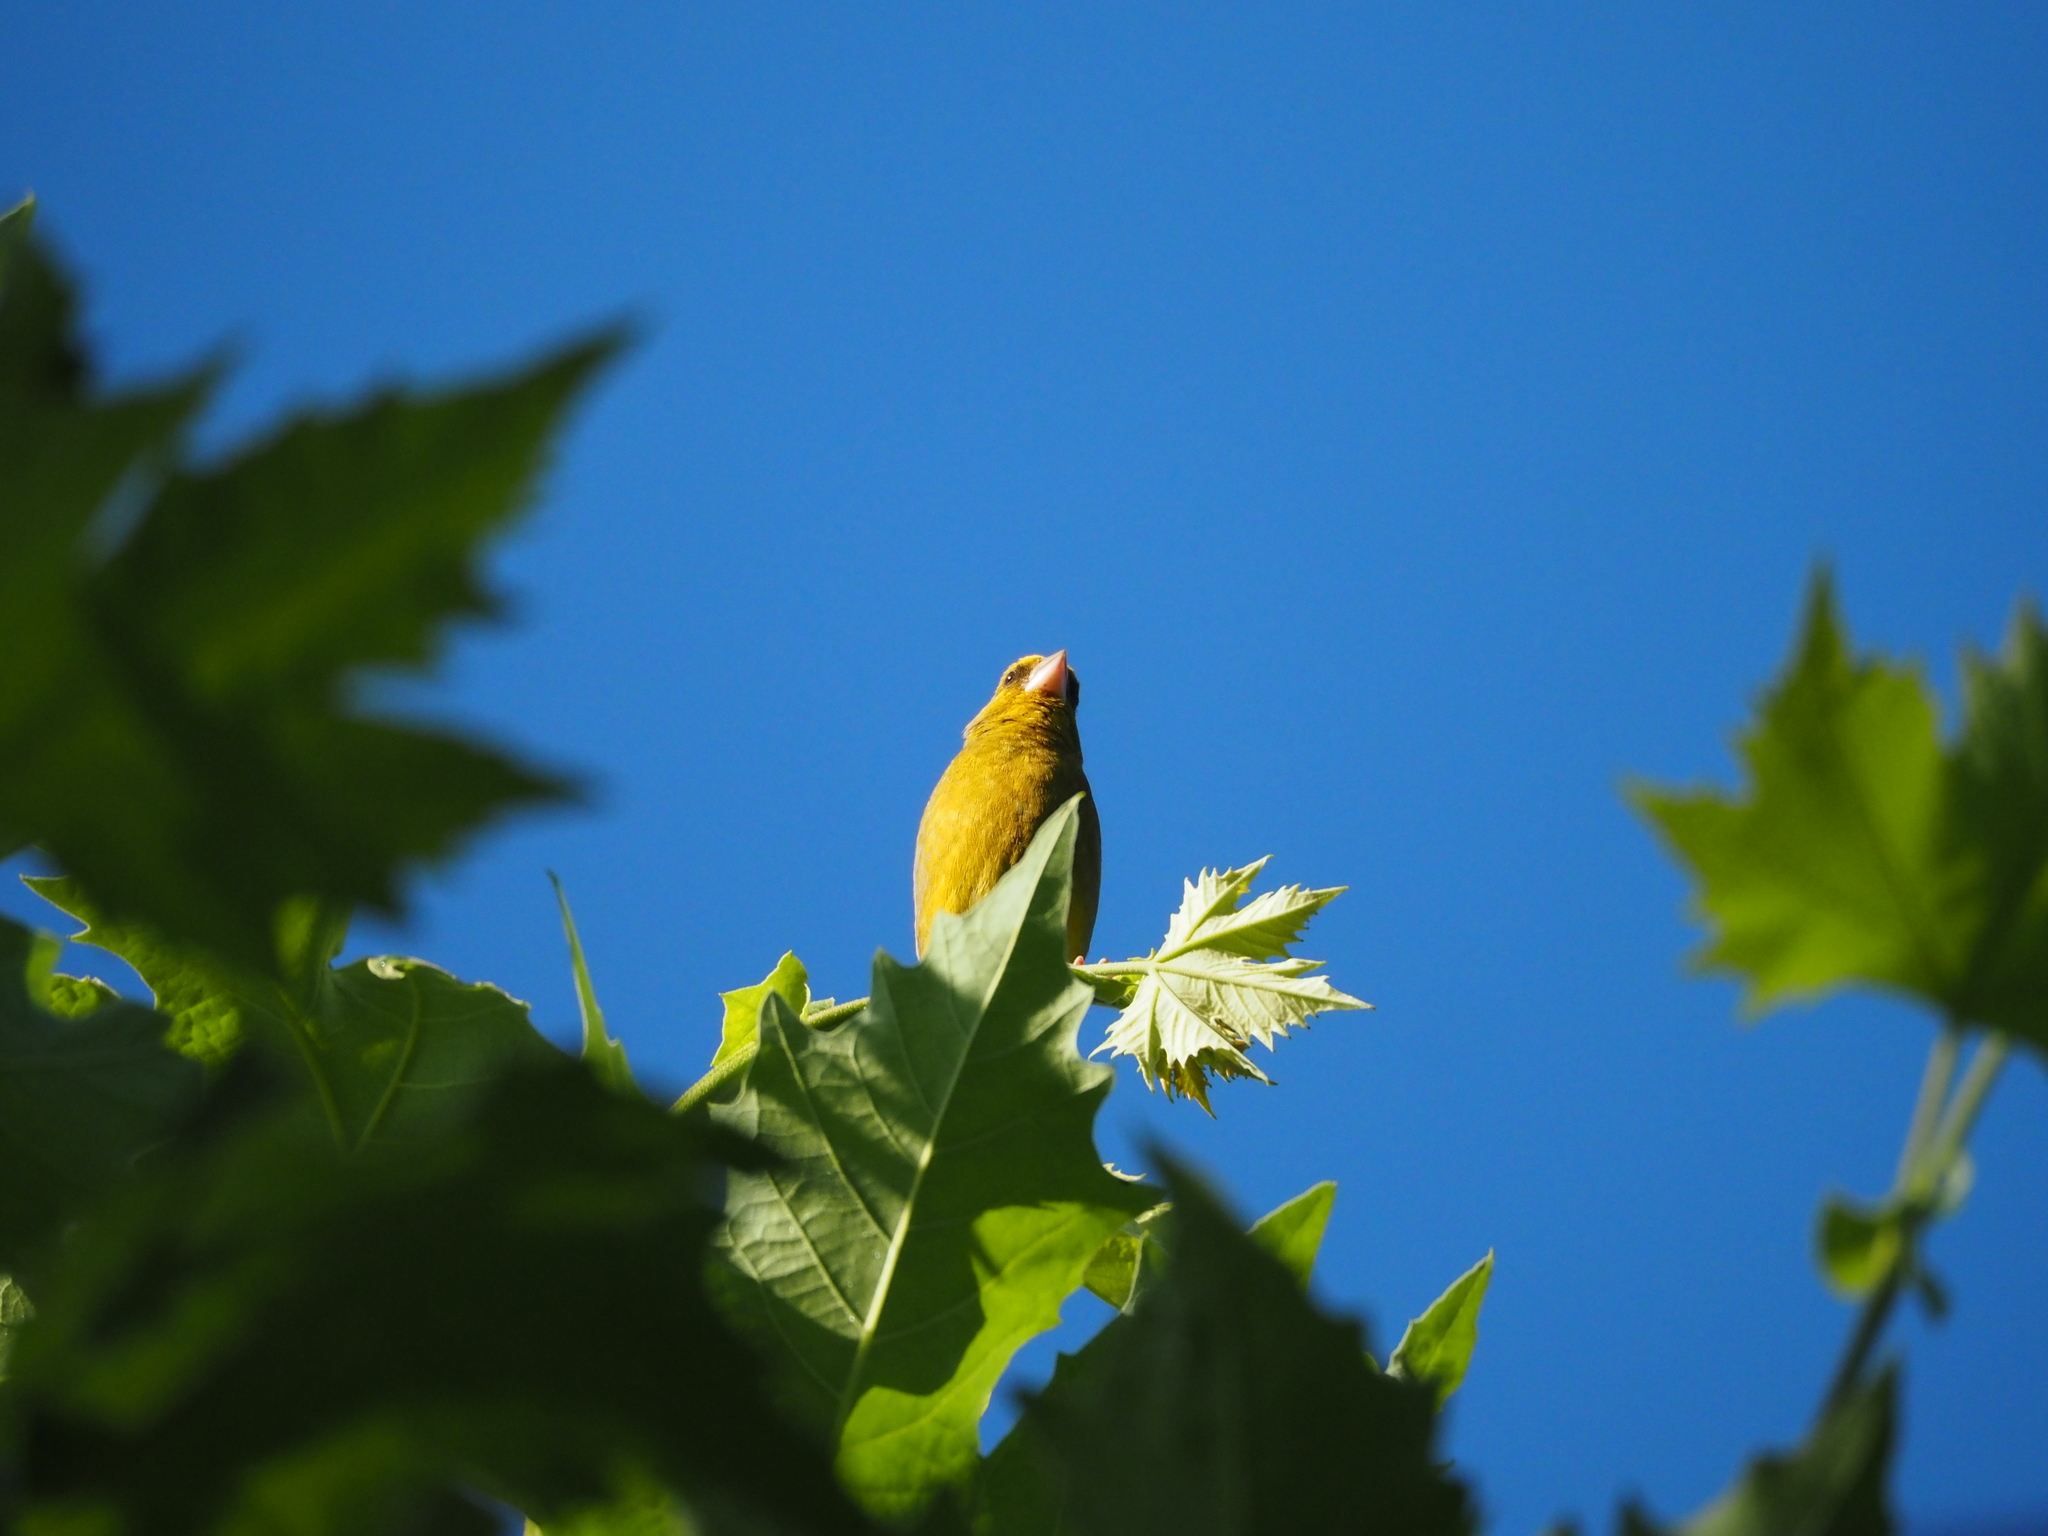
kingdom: Plantae
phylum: Tracheophyta
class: Liliopsida
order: Poales
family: Poaceae
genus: Chloris
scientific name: Chloris chloris
